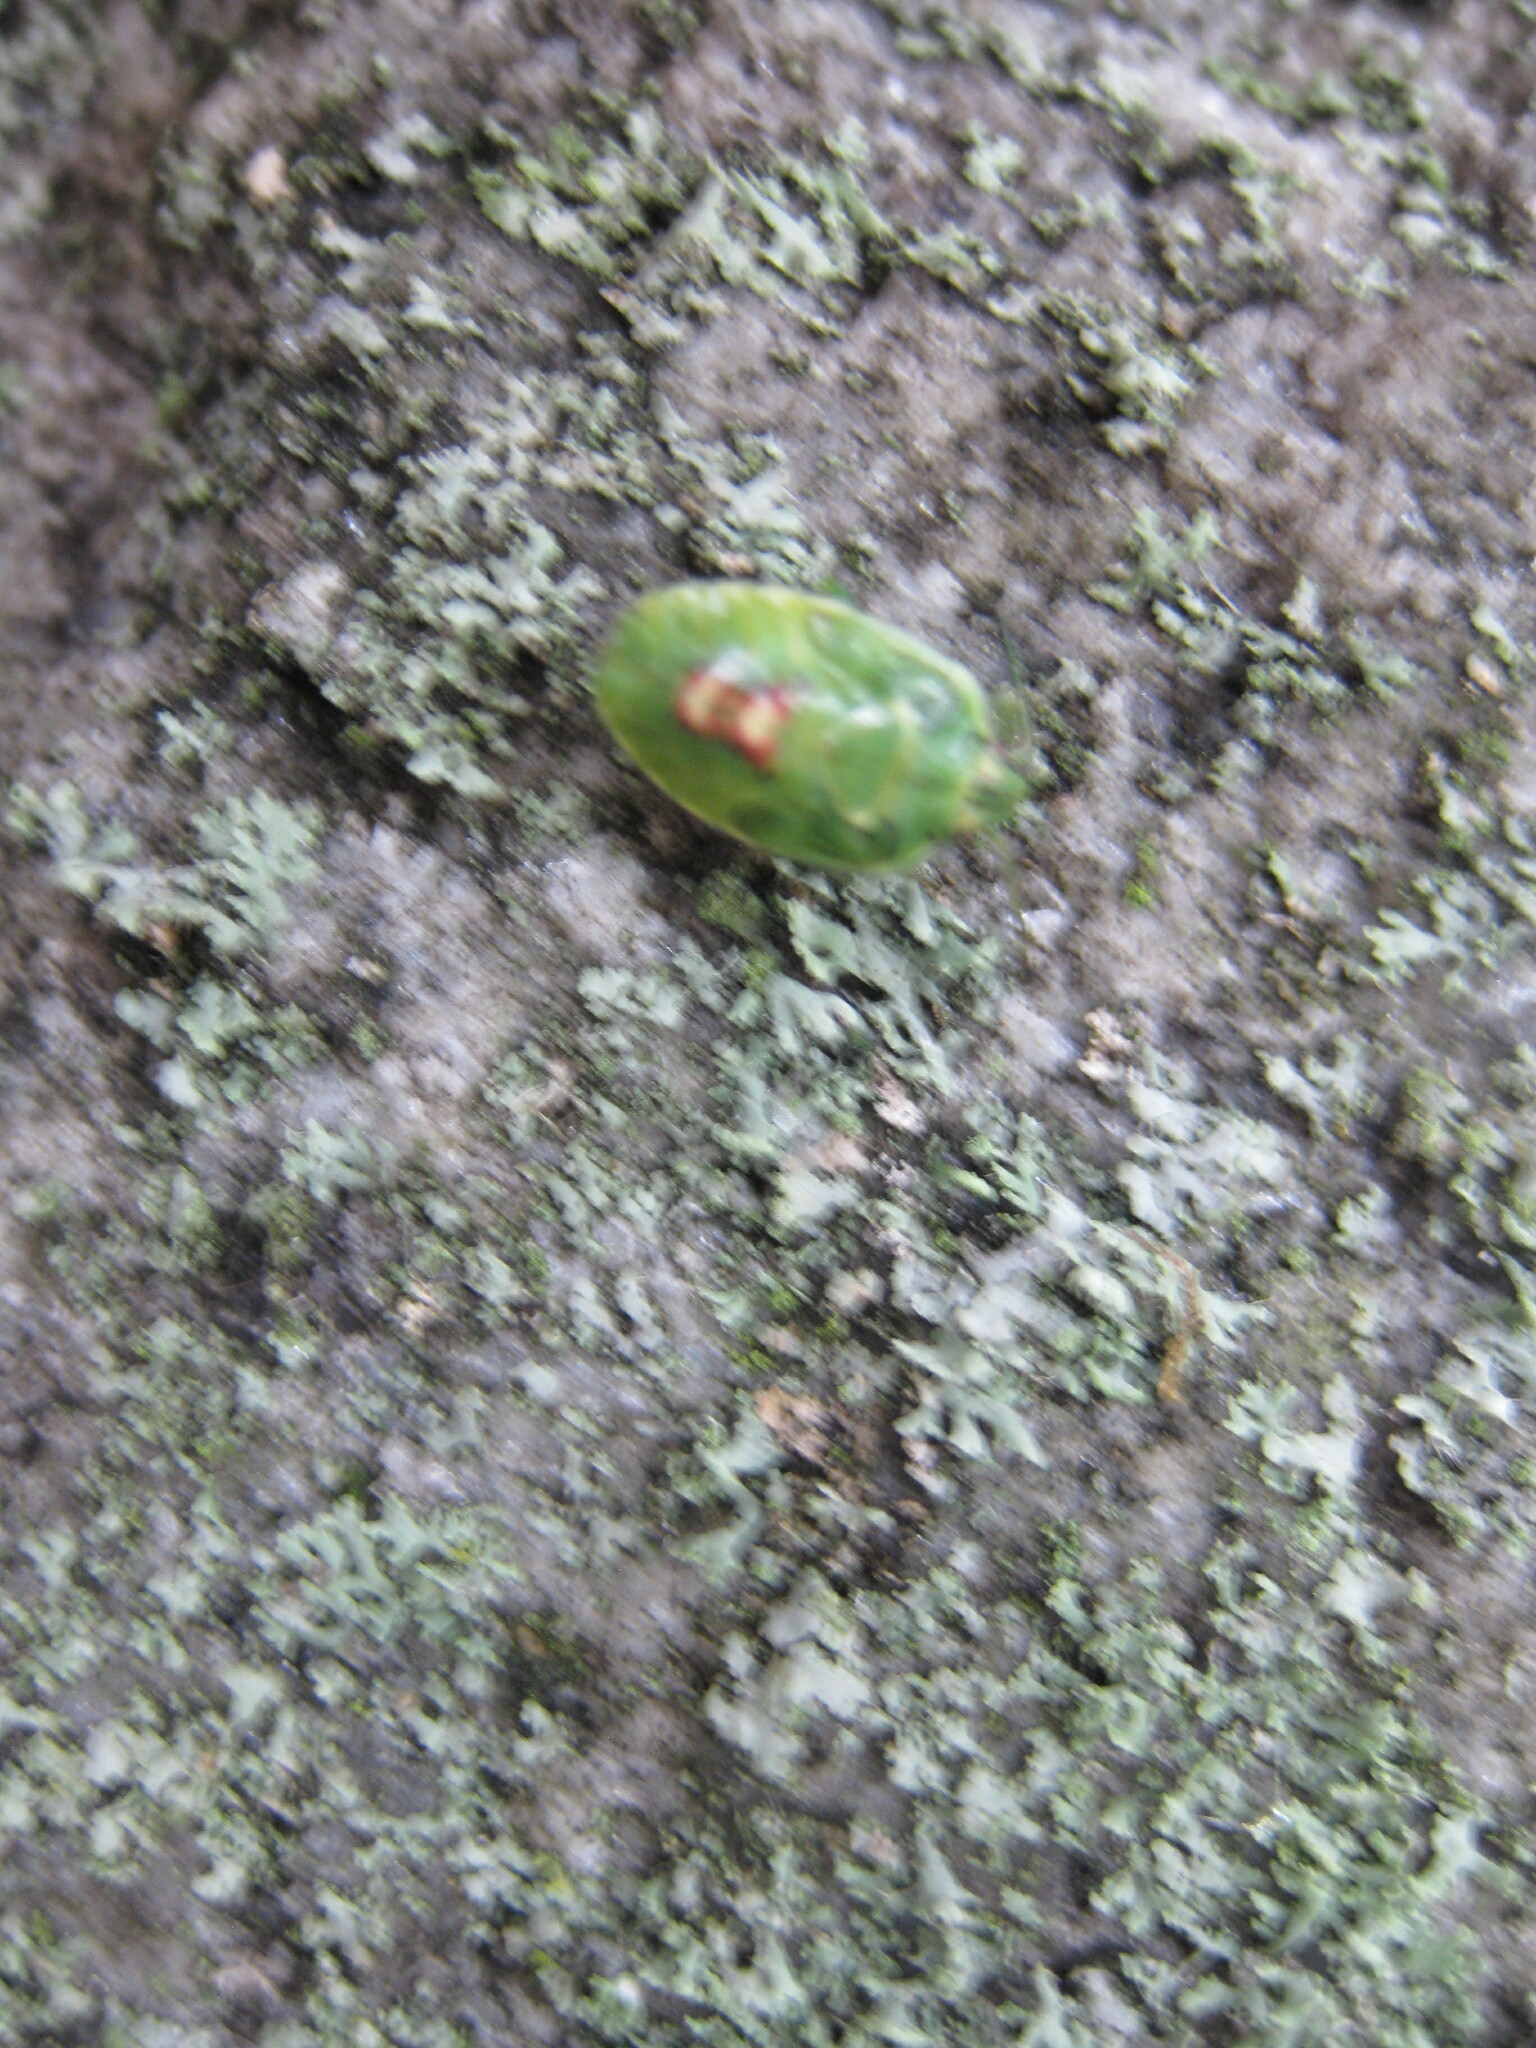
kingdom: Animalia
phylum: Arthropoda
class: Insecta
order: Hemiptera
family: Acanthosomatidae
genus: Cyphostethus
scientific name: Cyphostethus tristriatus
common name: Juniper shieldbug
